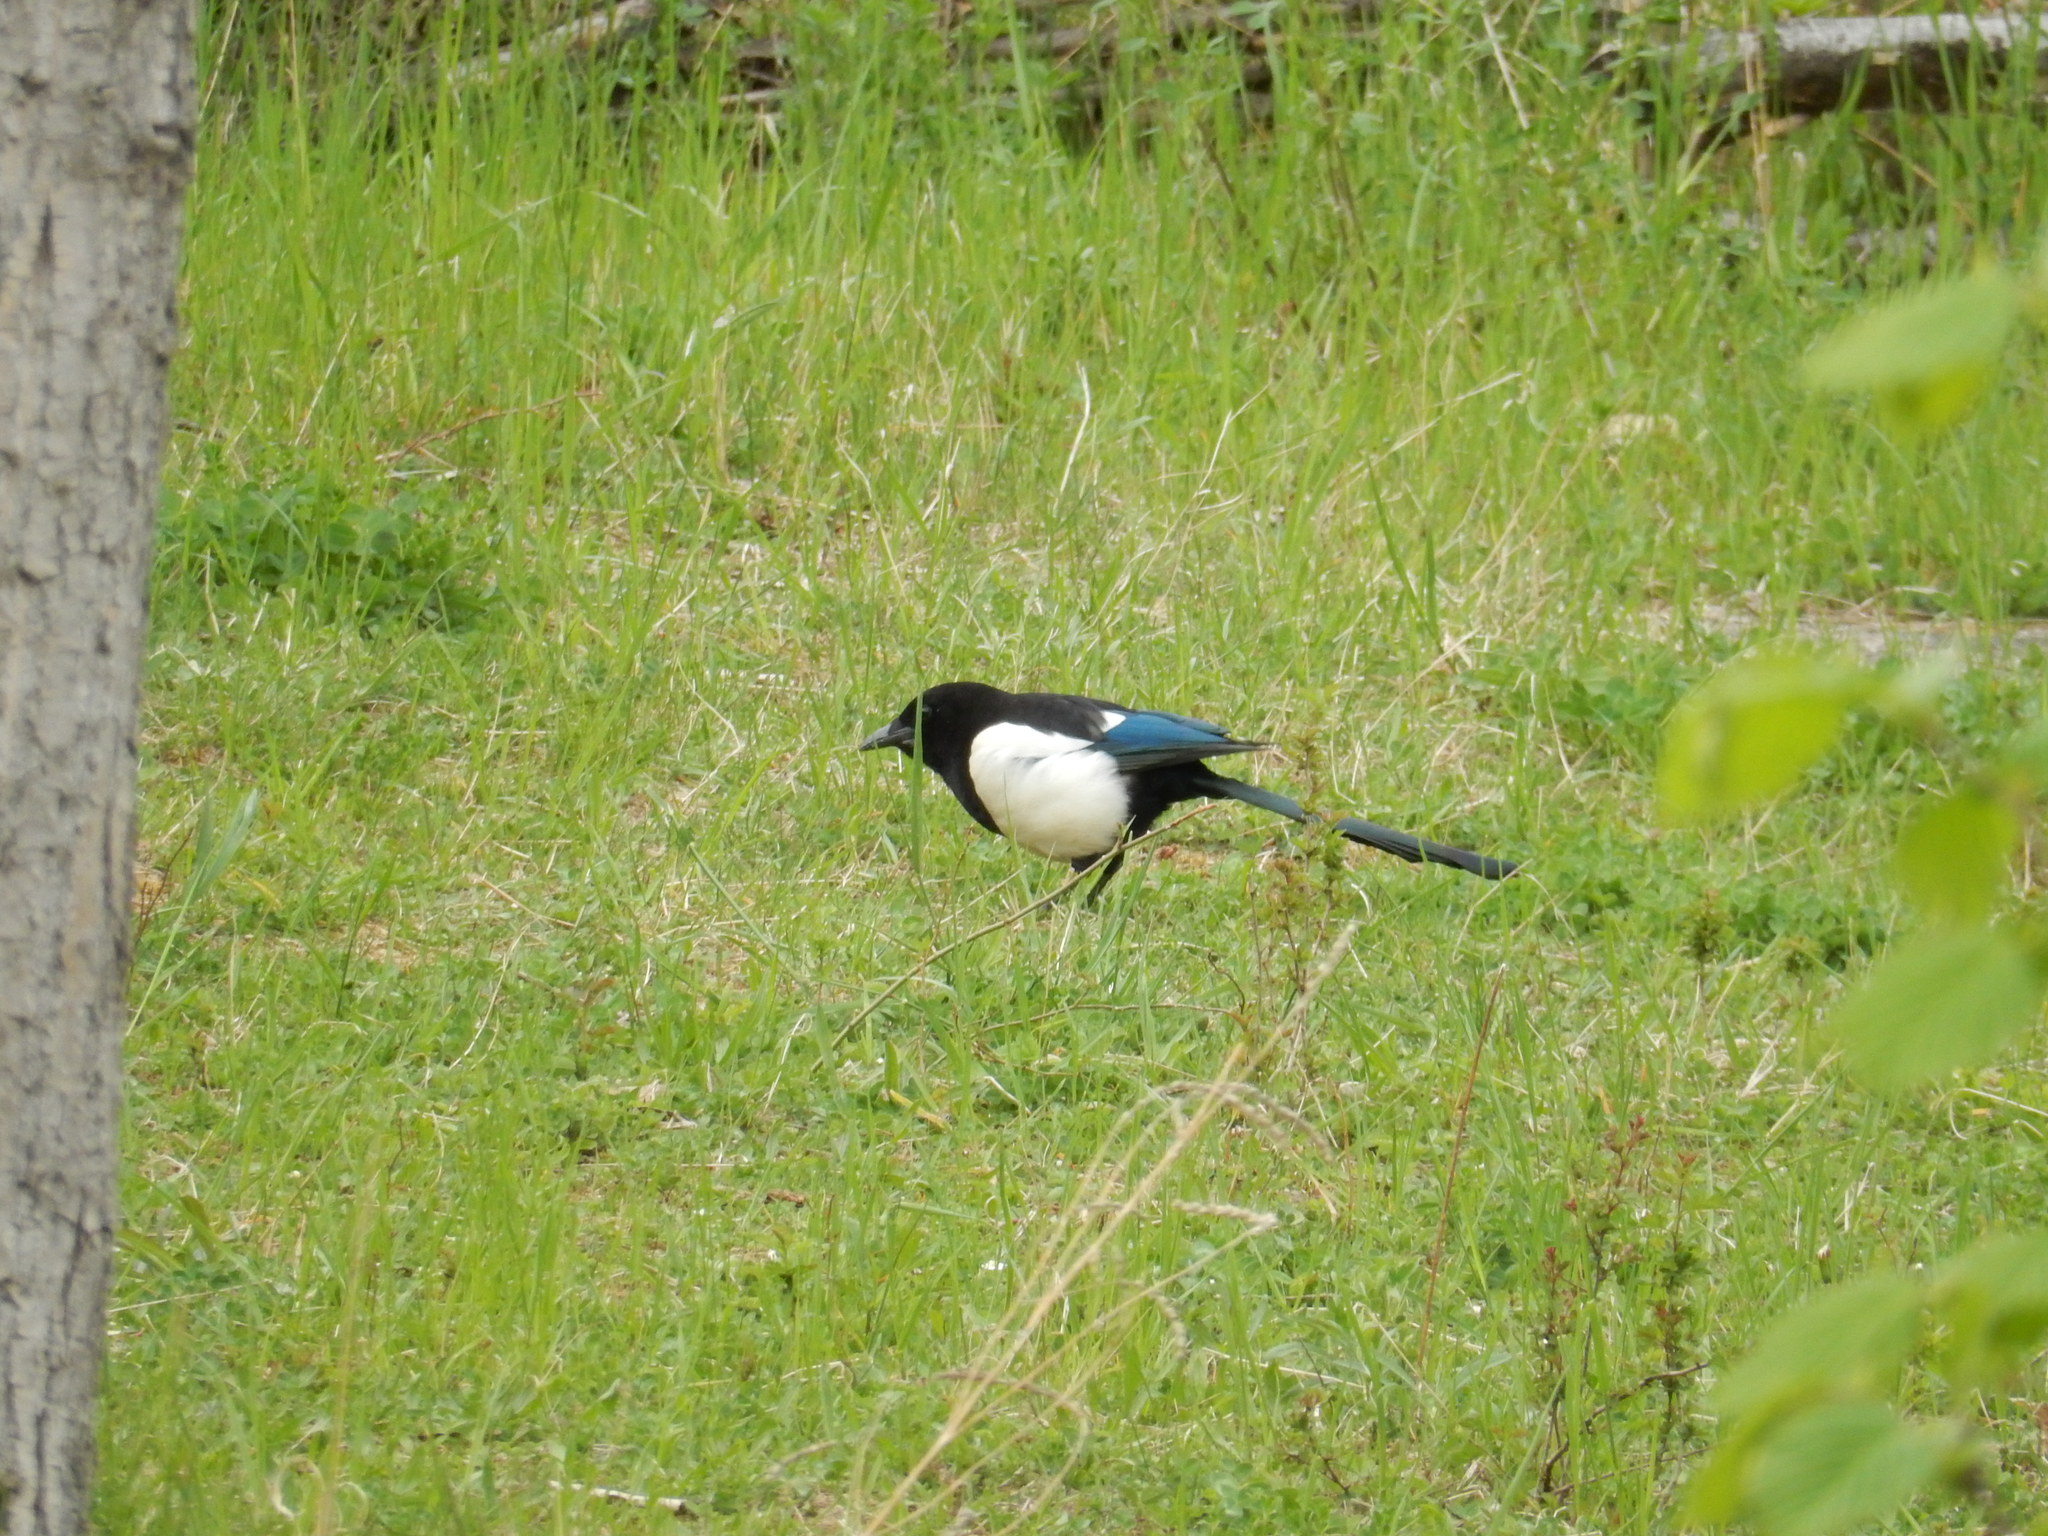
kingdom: Animalia
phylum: Chordata
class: Aves
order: Passeriformes
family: Corvidae
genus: Pica
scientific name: Pica pica
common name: Eurasian magpie
